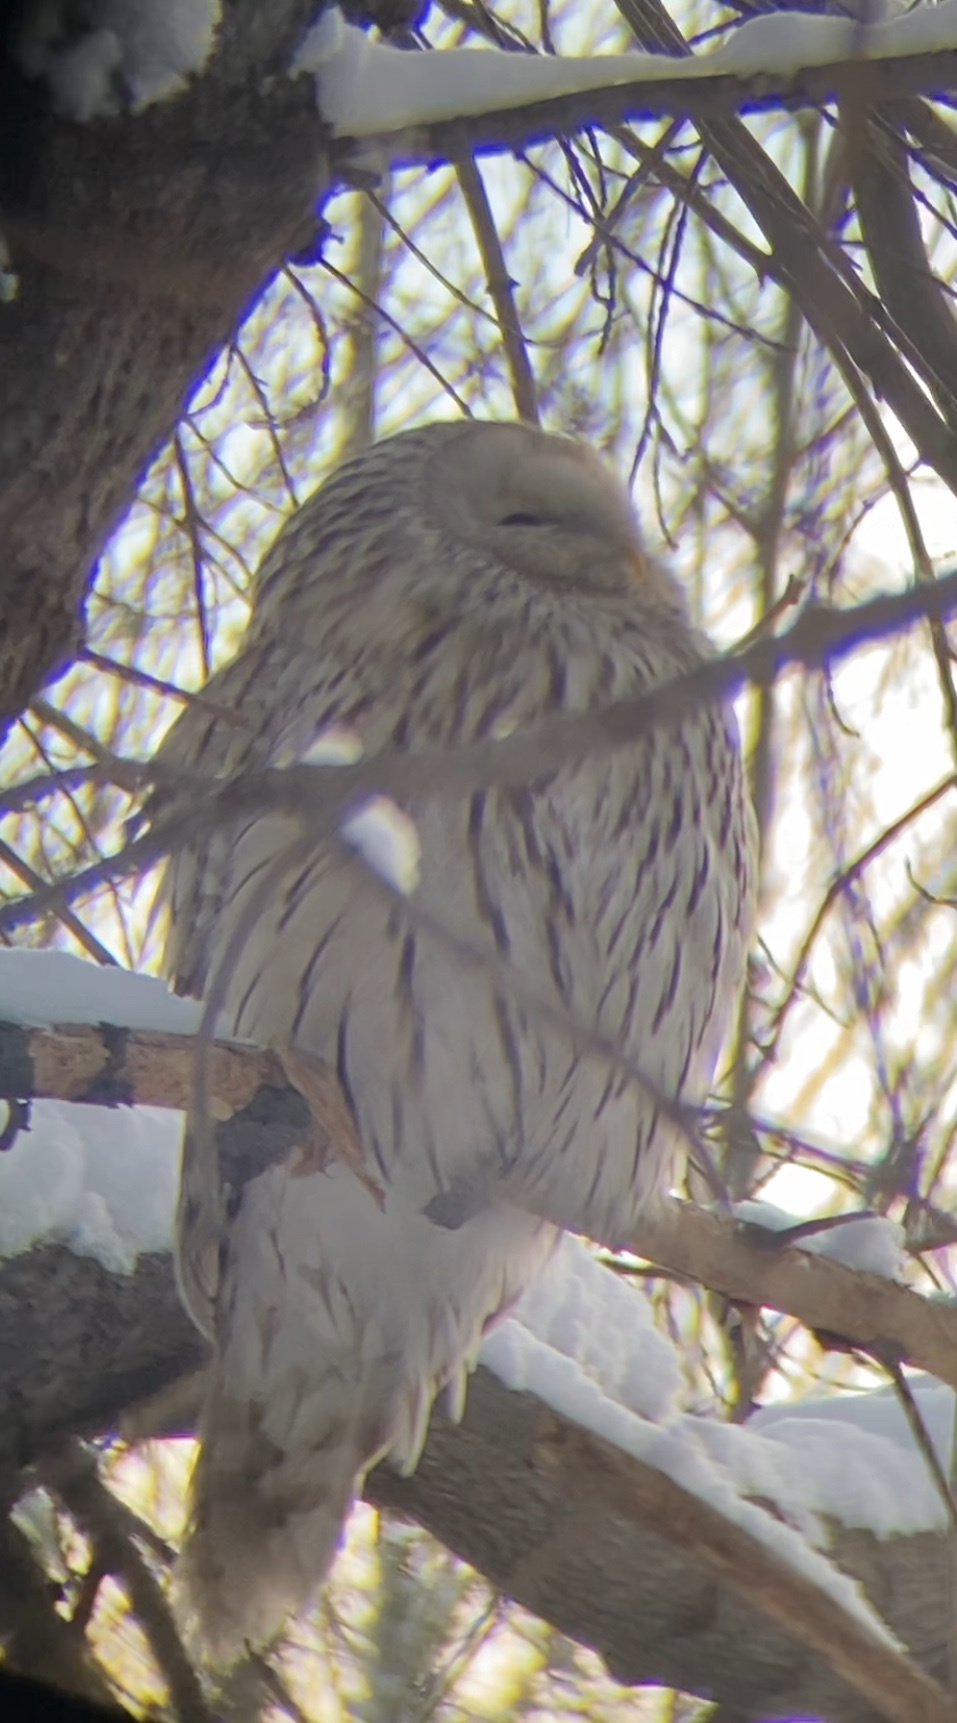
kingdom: Animalia
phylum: Chordata
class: Aves
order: Strigiformes
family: Strigidae
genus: Strix
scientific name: Strix uralensis
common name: Ural owl
